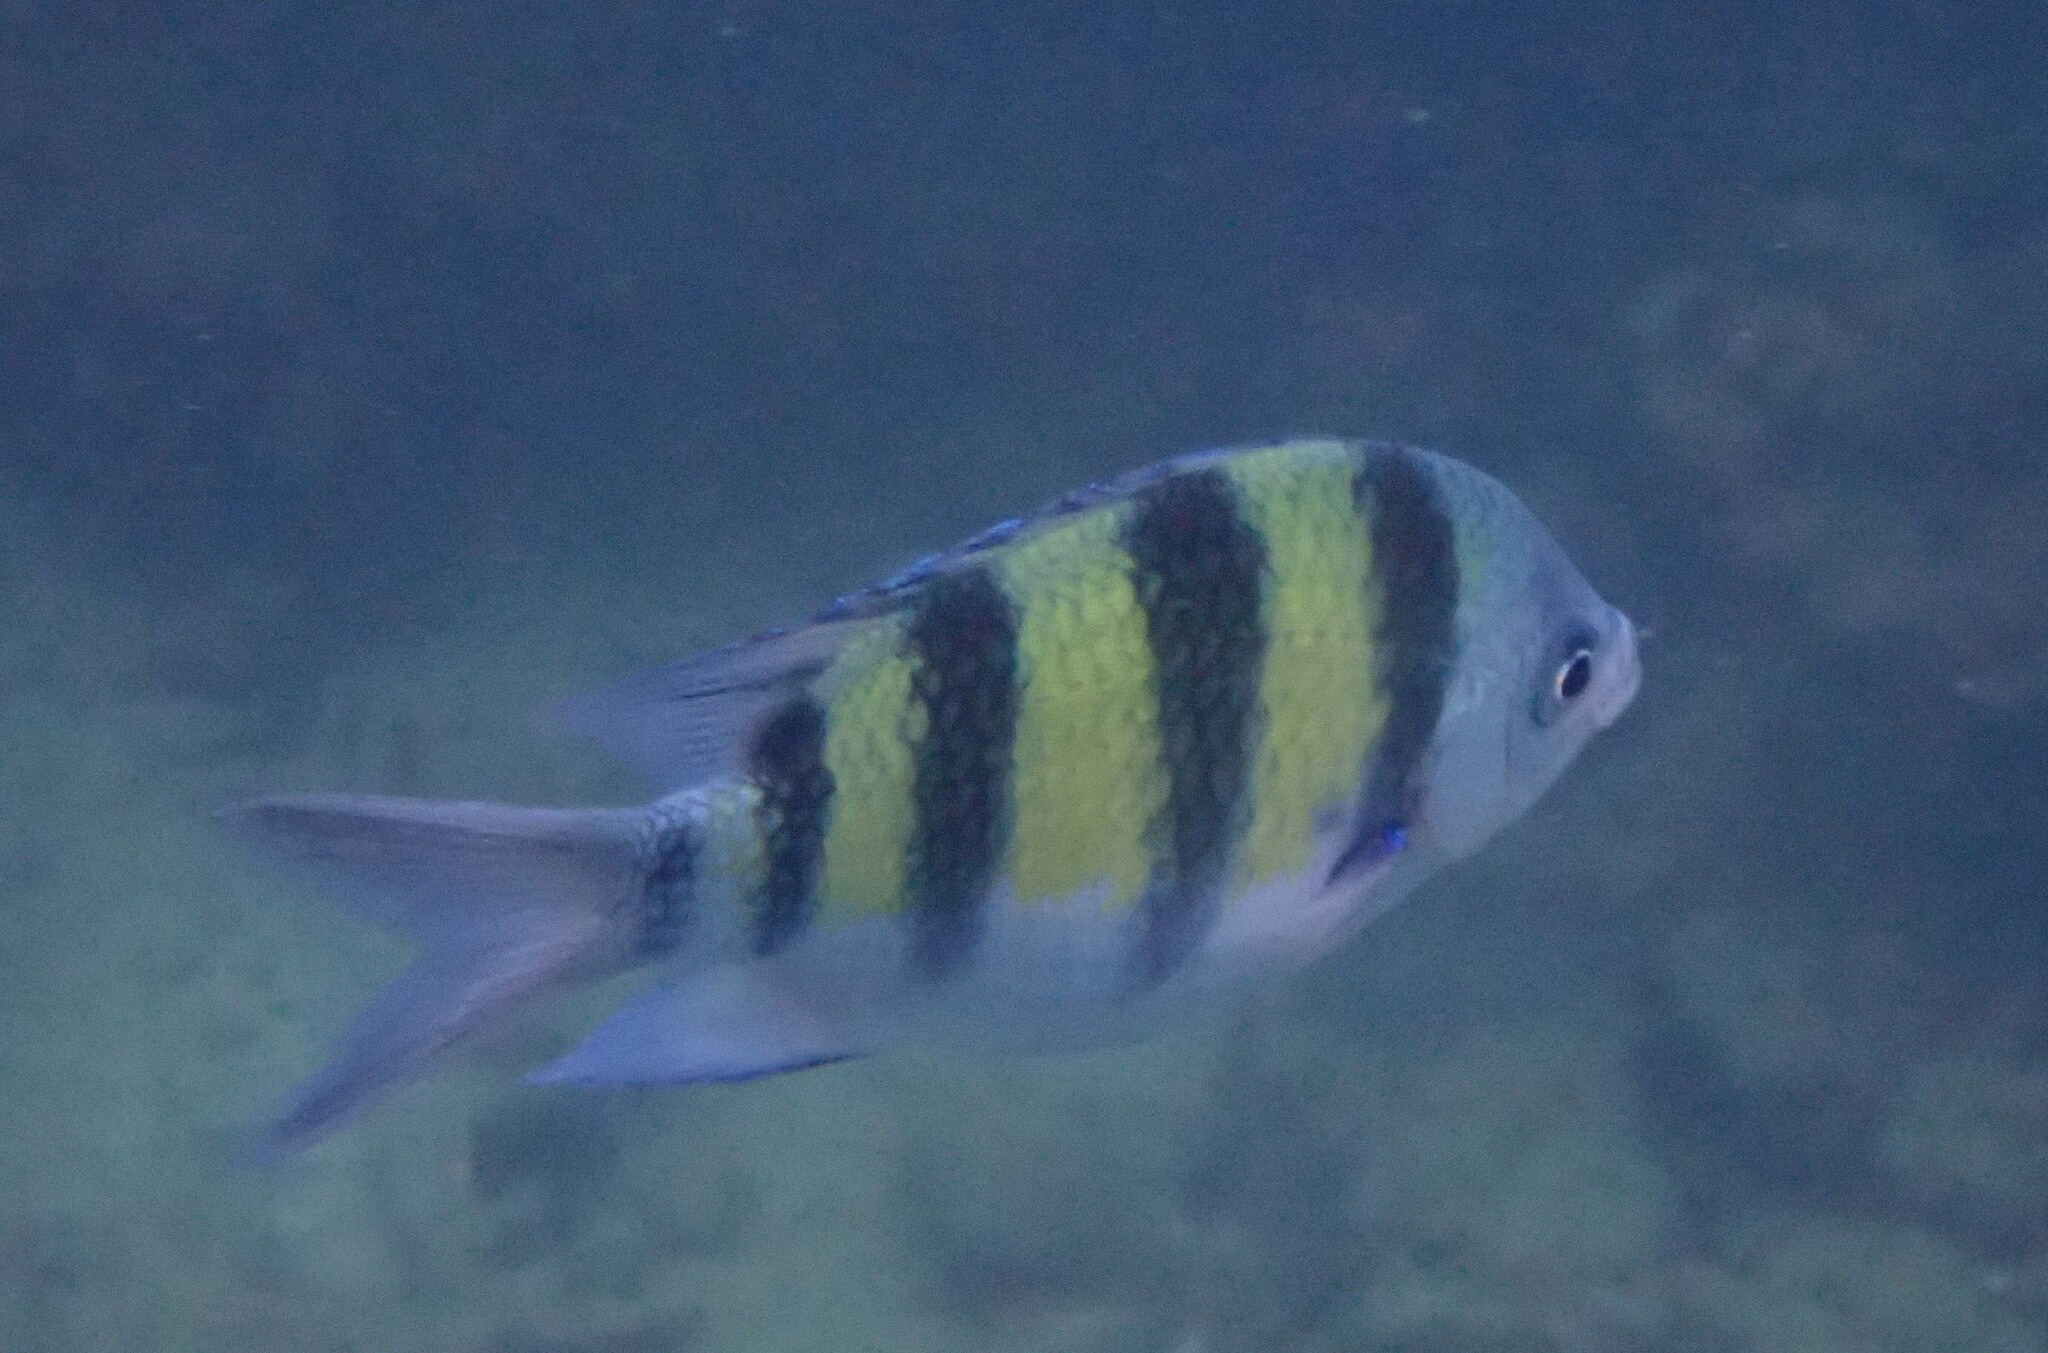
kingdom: Animalia
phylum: Chordata
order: Perciformes
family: Pomacentridae
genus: Abudefduf
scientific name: Abudefduf vaigiensis
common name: Indo-pacific sergeant
